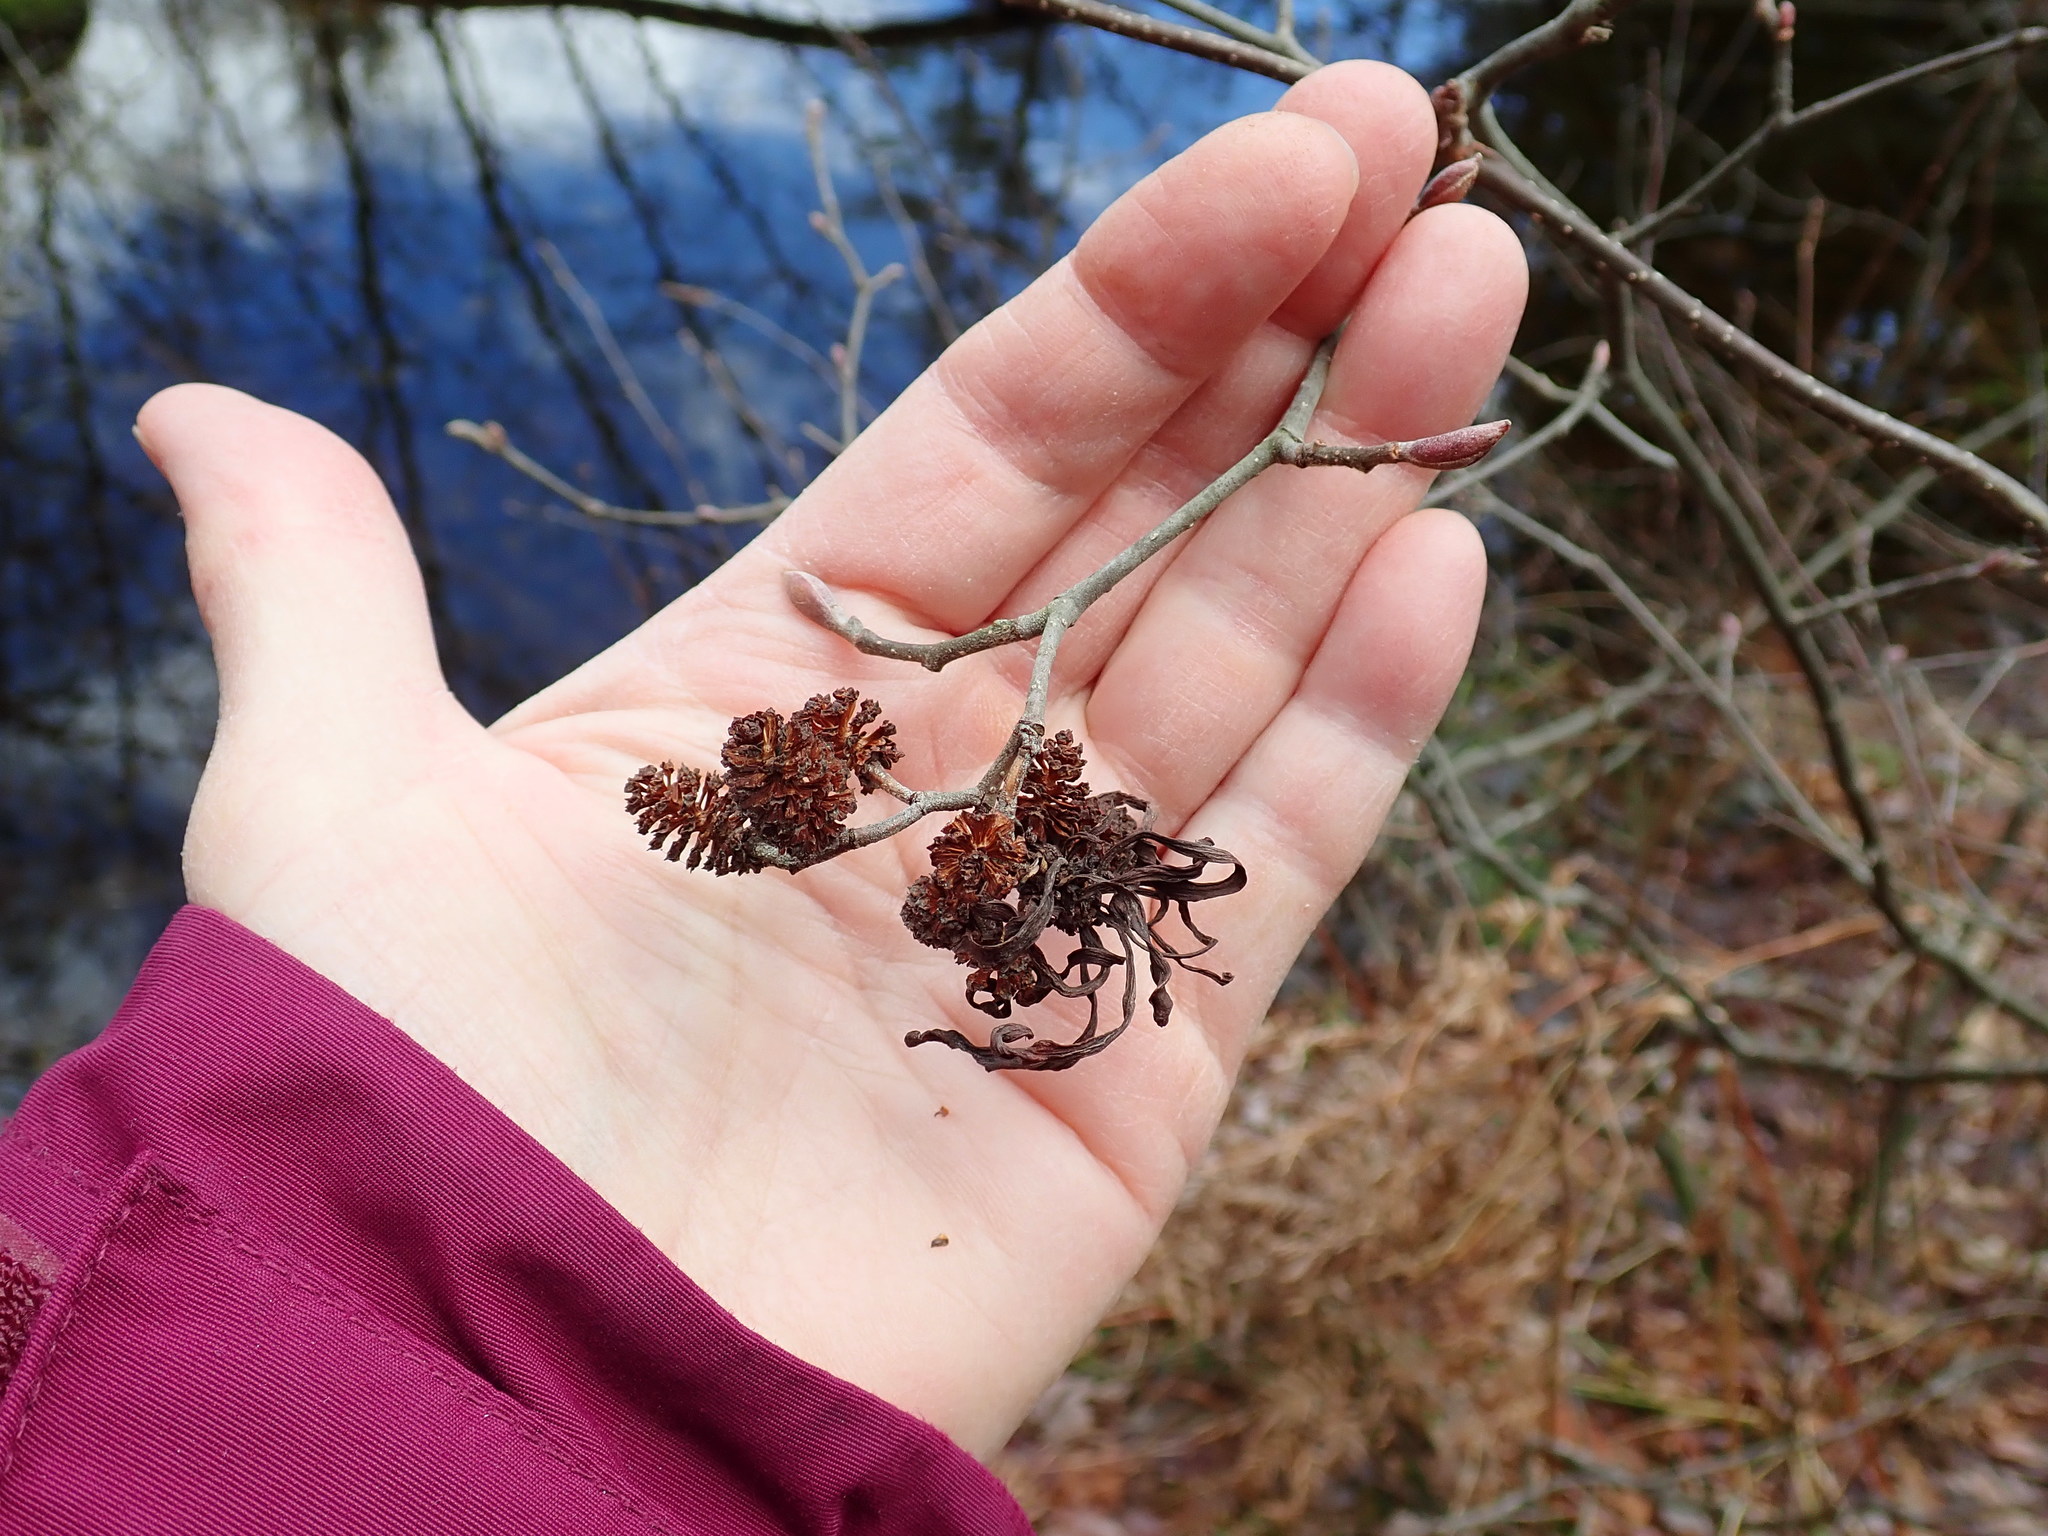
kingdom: Plantae
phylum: Tracheophyta
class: Magnoliopsida
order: Fagales
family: Betulaceae
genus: Alnus
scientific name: Alnus incana
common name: Grey alder
